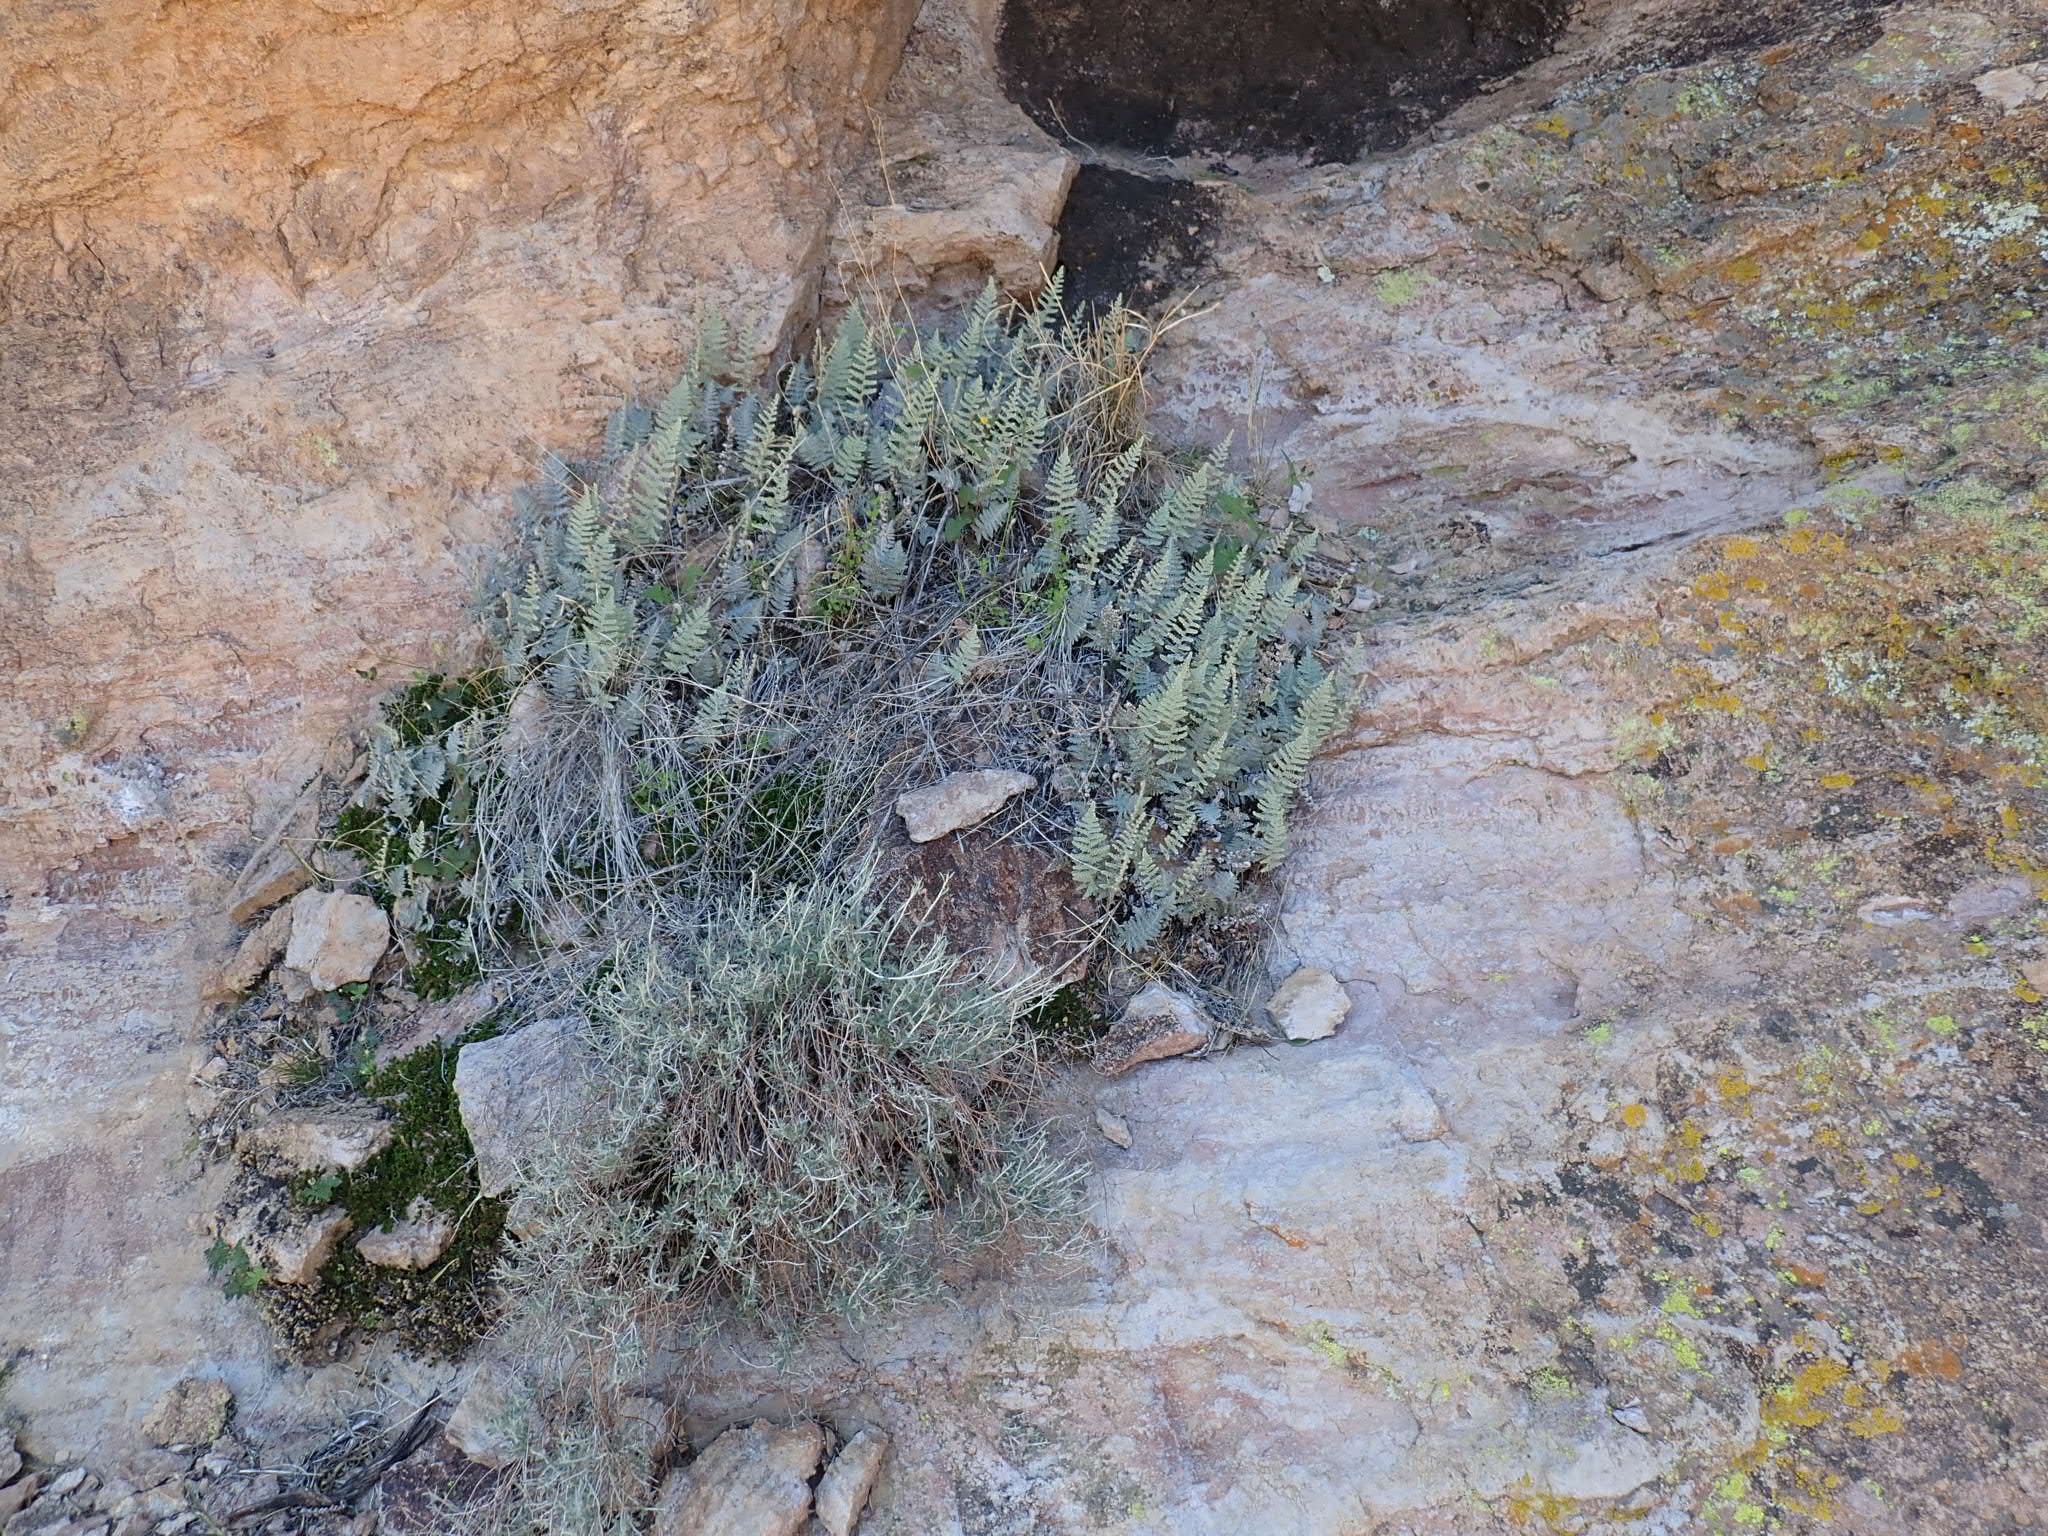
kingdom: Plantae
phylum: Tracheophyta
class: Polypodiopsida
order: Polypodiales
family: Pteridaceae
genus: Notholaena
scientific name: Notholaena standleyi
